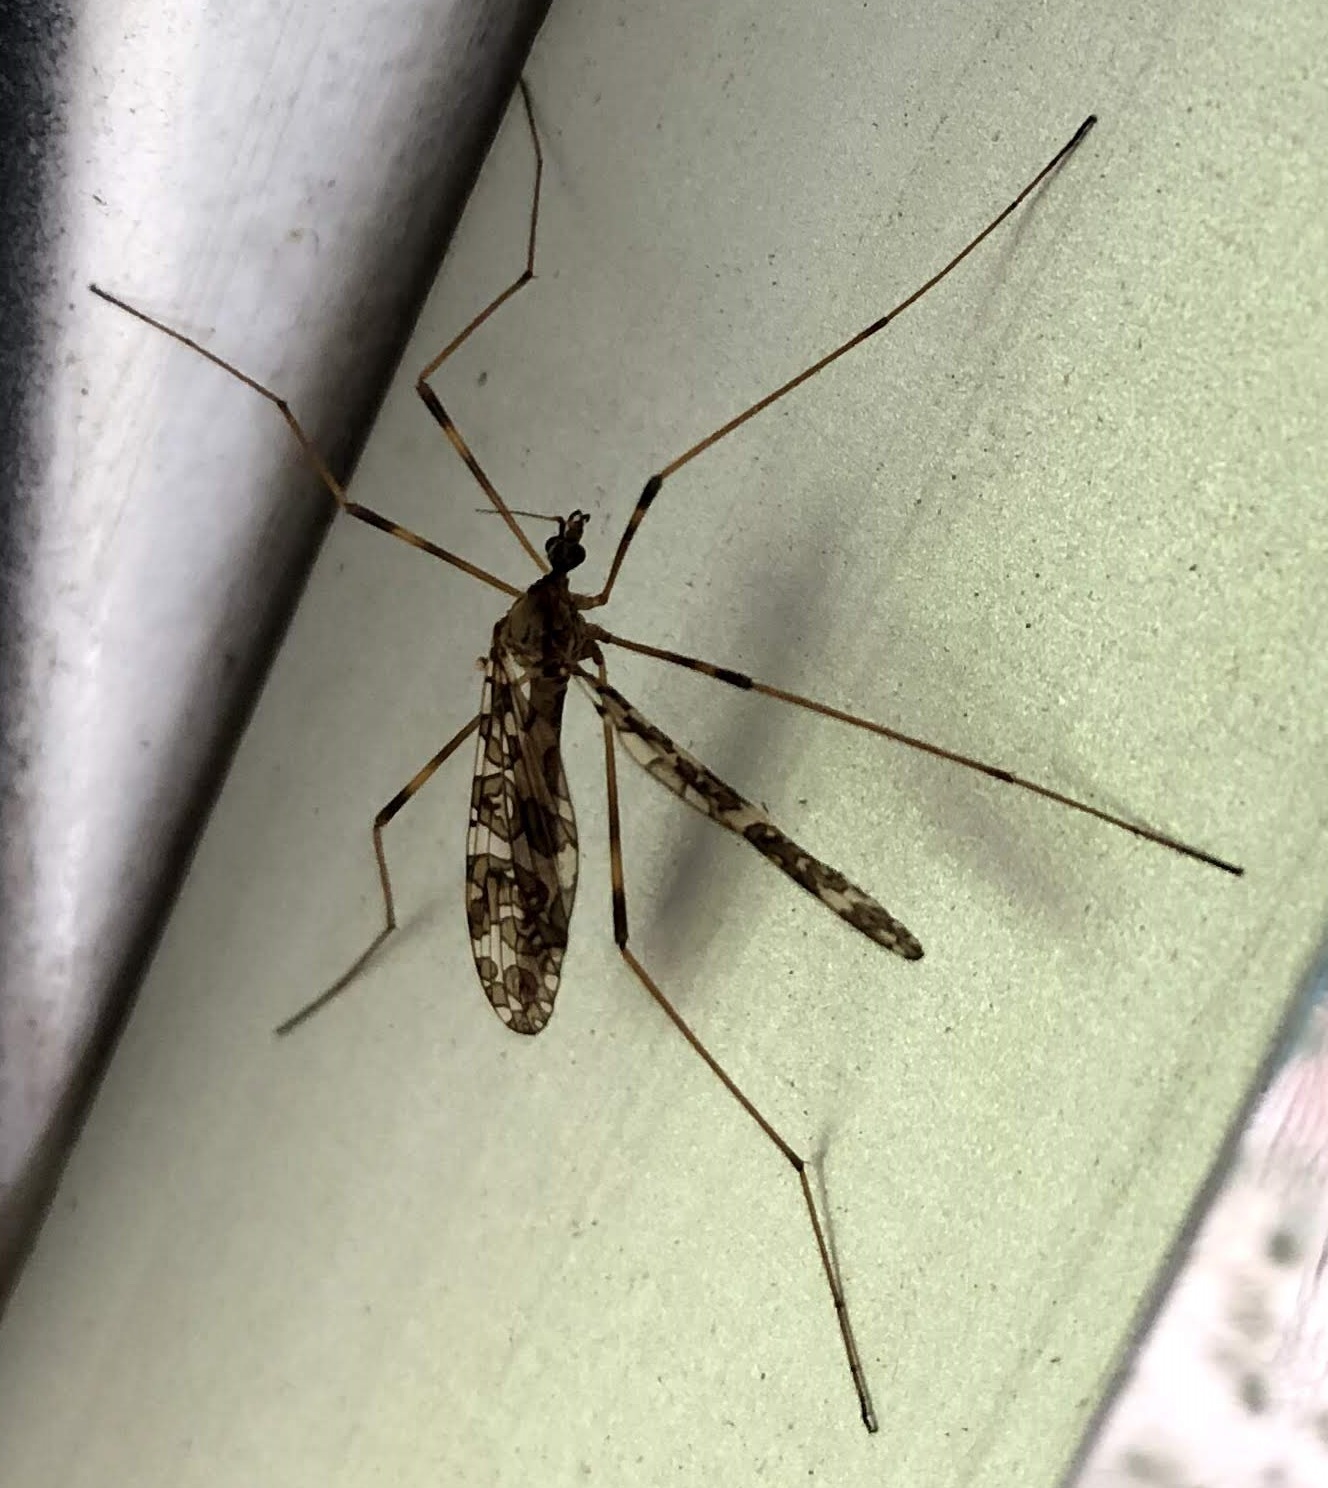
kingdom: Animalia
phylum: Arthropoda
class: Insecta
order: Diptera
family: Limoniidae
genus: Epiphragma
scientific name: Epiphragma fasciapenne
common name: Band-winged crane fly
